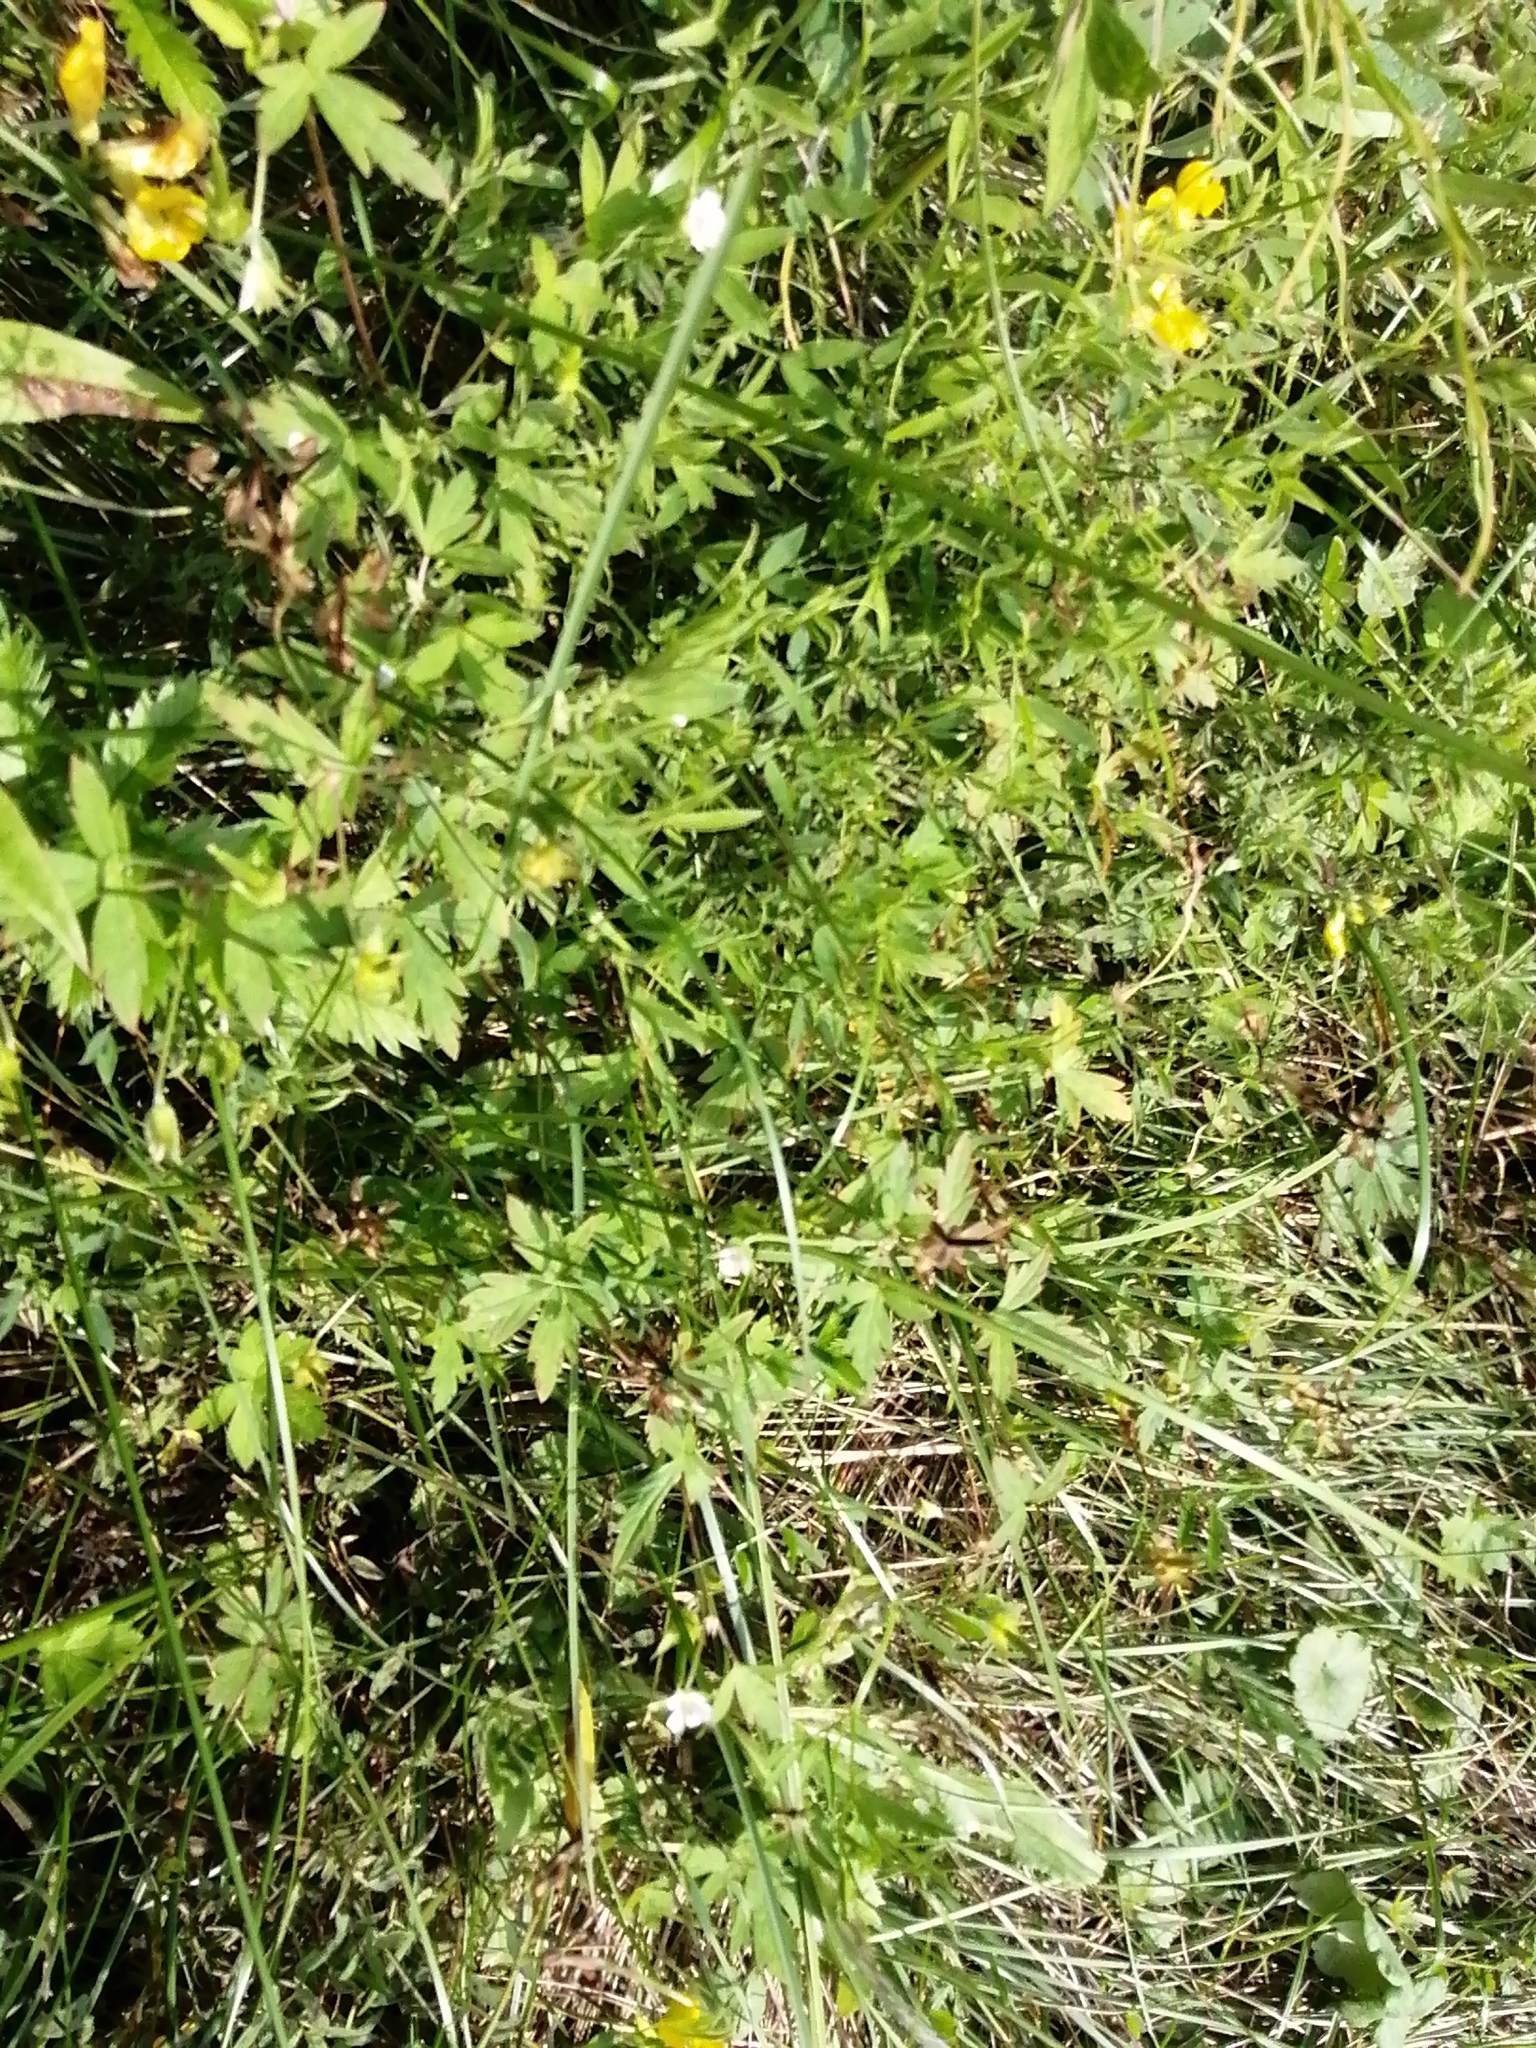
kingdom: Plantae
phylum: Tracheophyta
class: Magnoliopsida
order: Geraniales
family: Geraniaceae
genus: Geranium
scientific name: Geranium sibiricum
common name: Siberian crane's-bill
